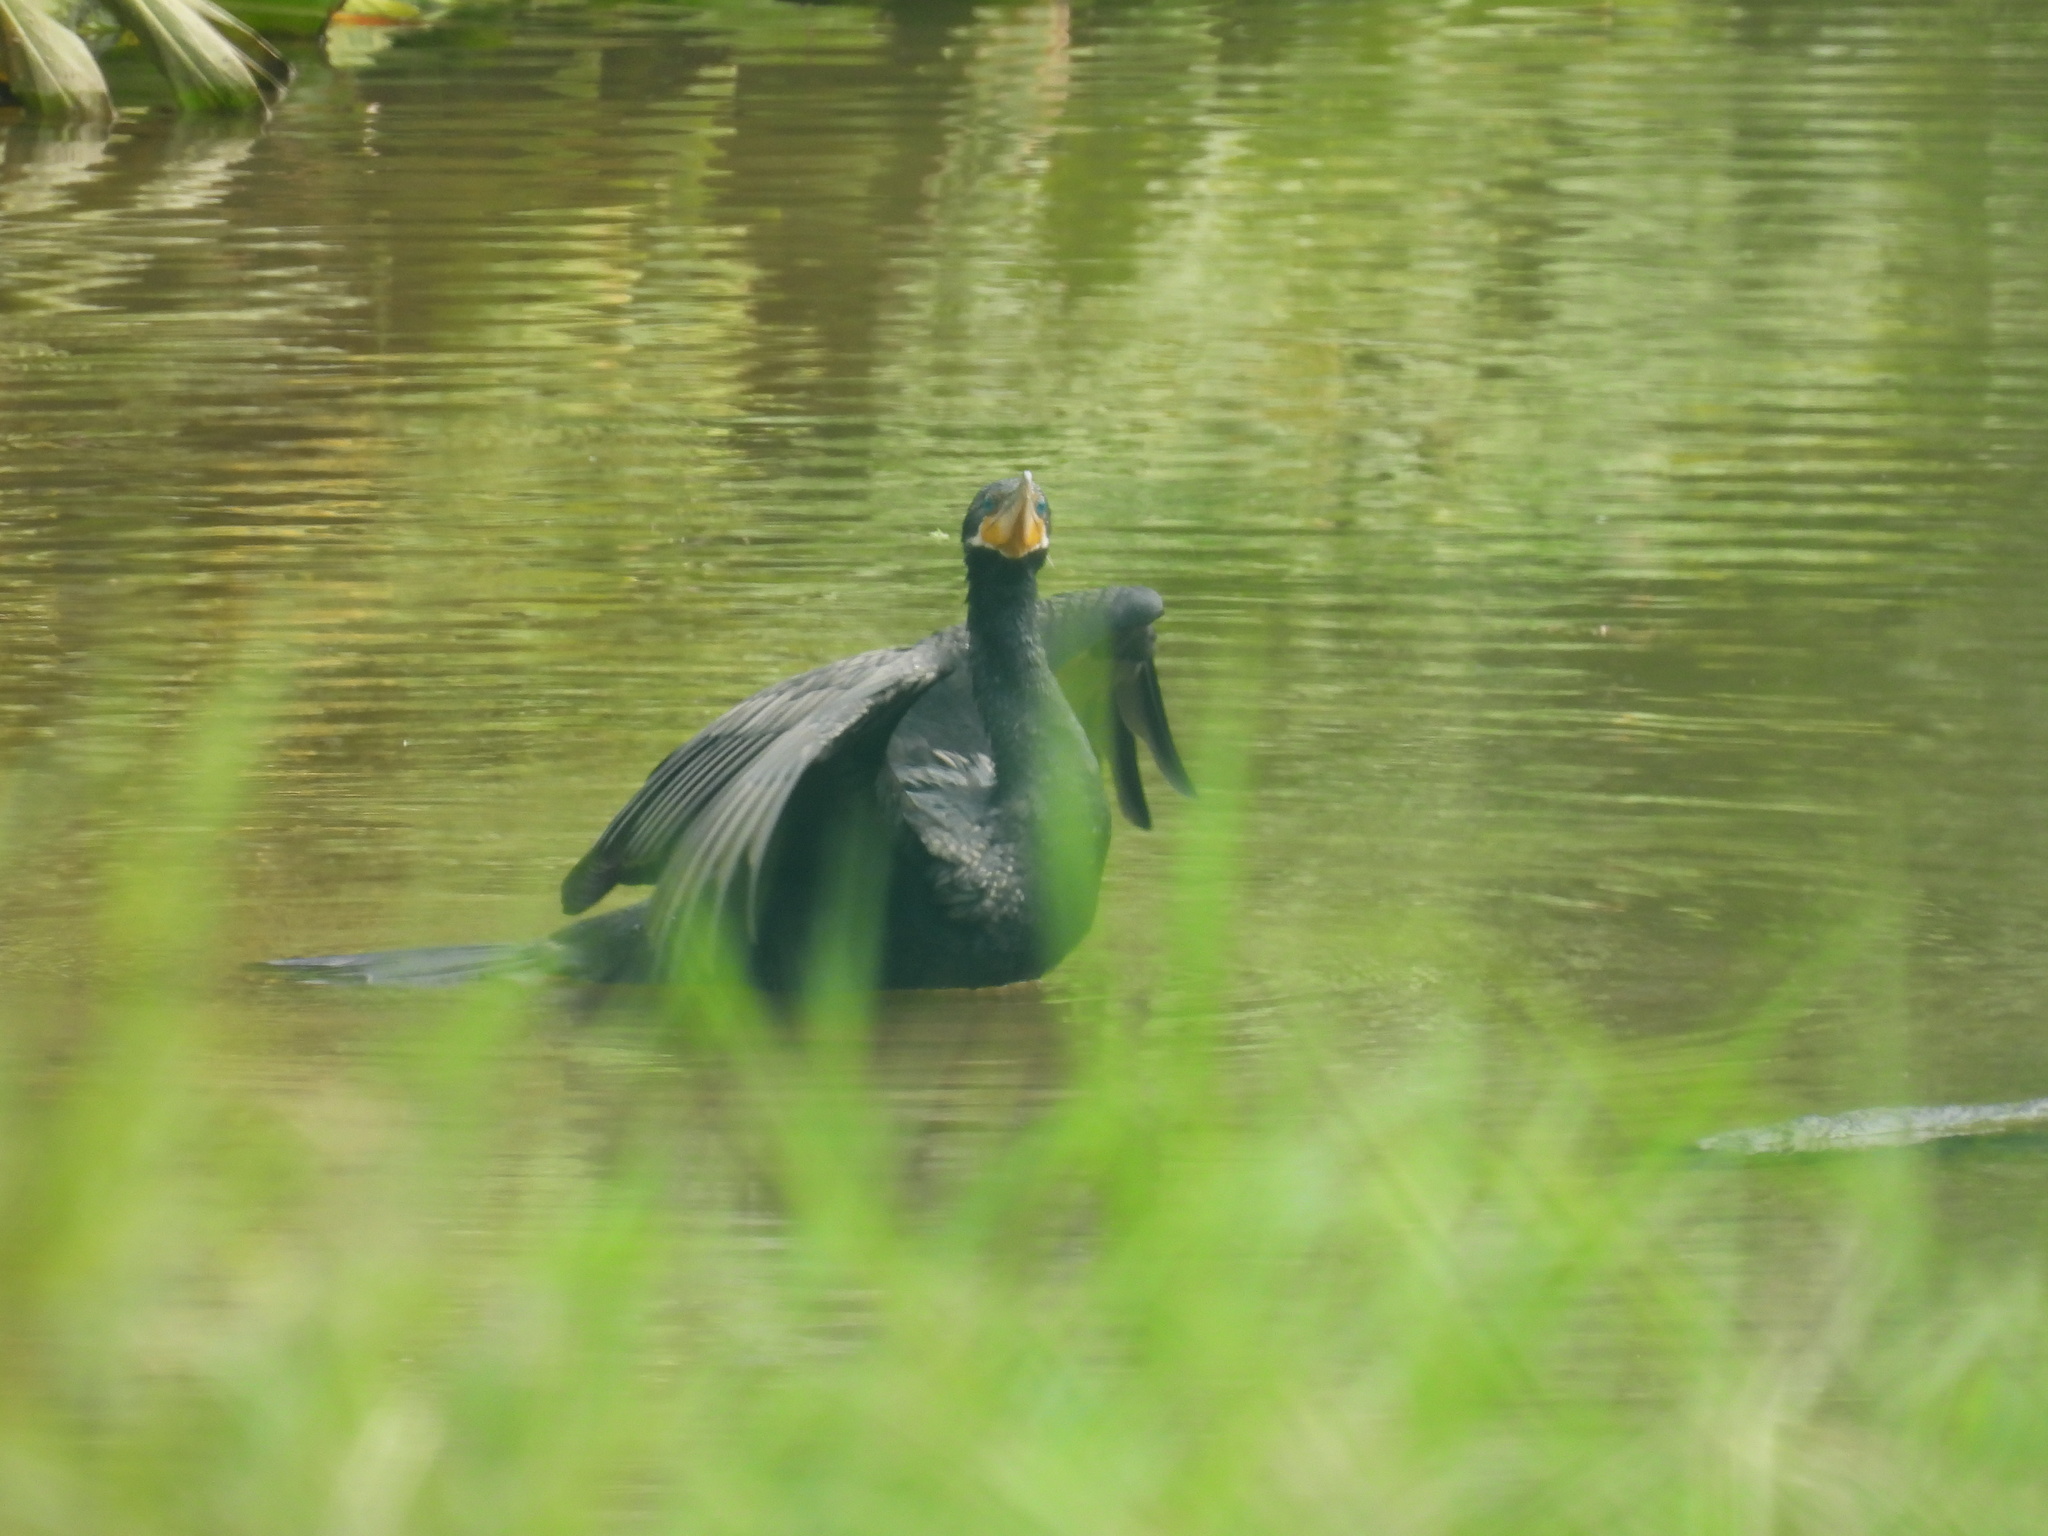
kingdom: Animalia
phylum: Chordata
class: Aves
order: Suliformes
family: Phalacrocoracidae
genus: Phalacrocorax
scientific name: Phalacrocorax brasilianus
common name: Neotropic cormorant
